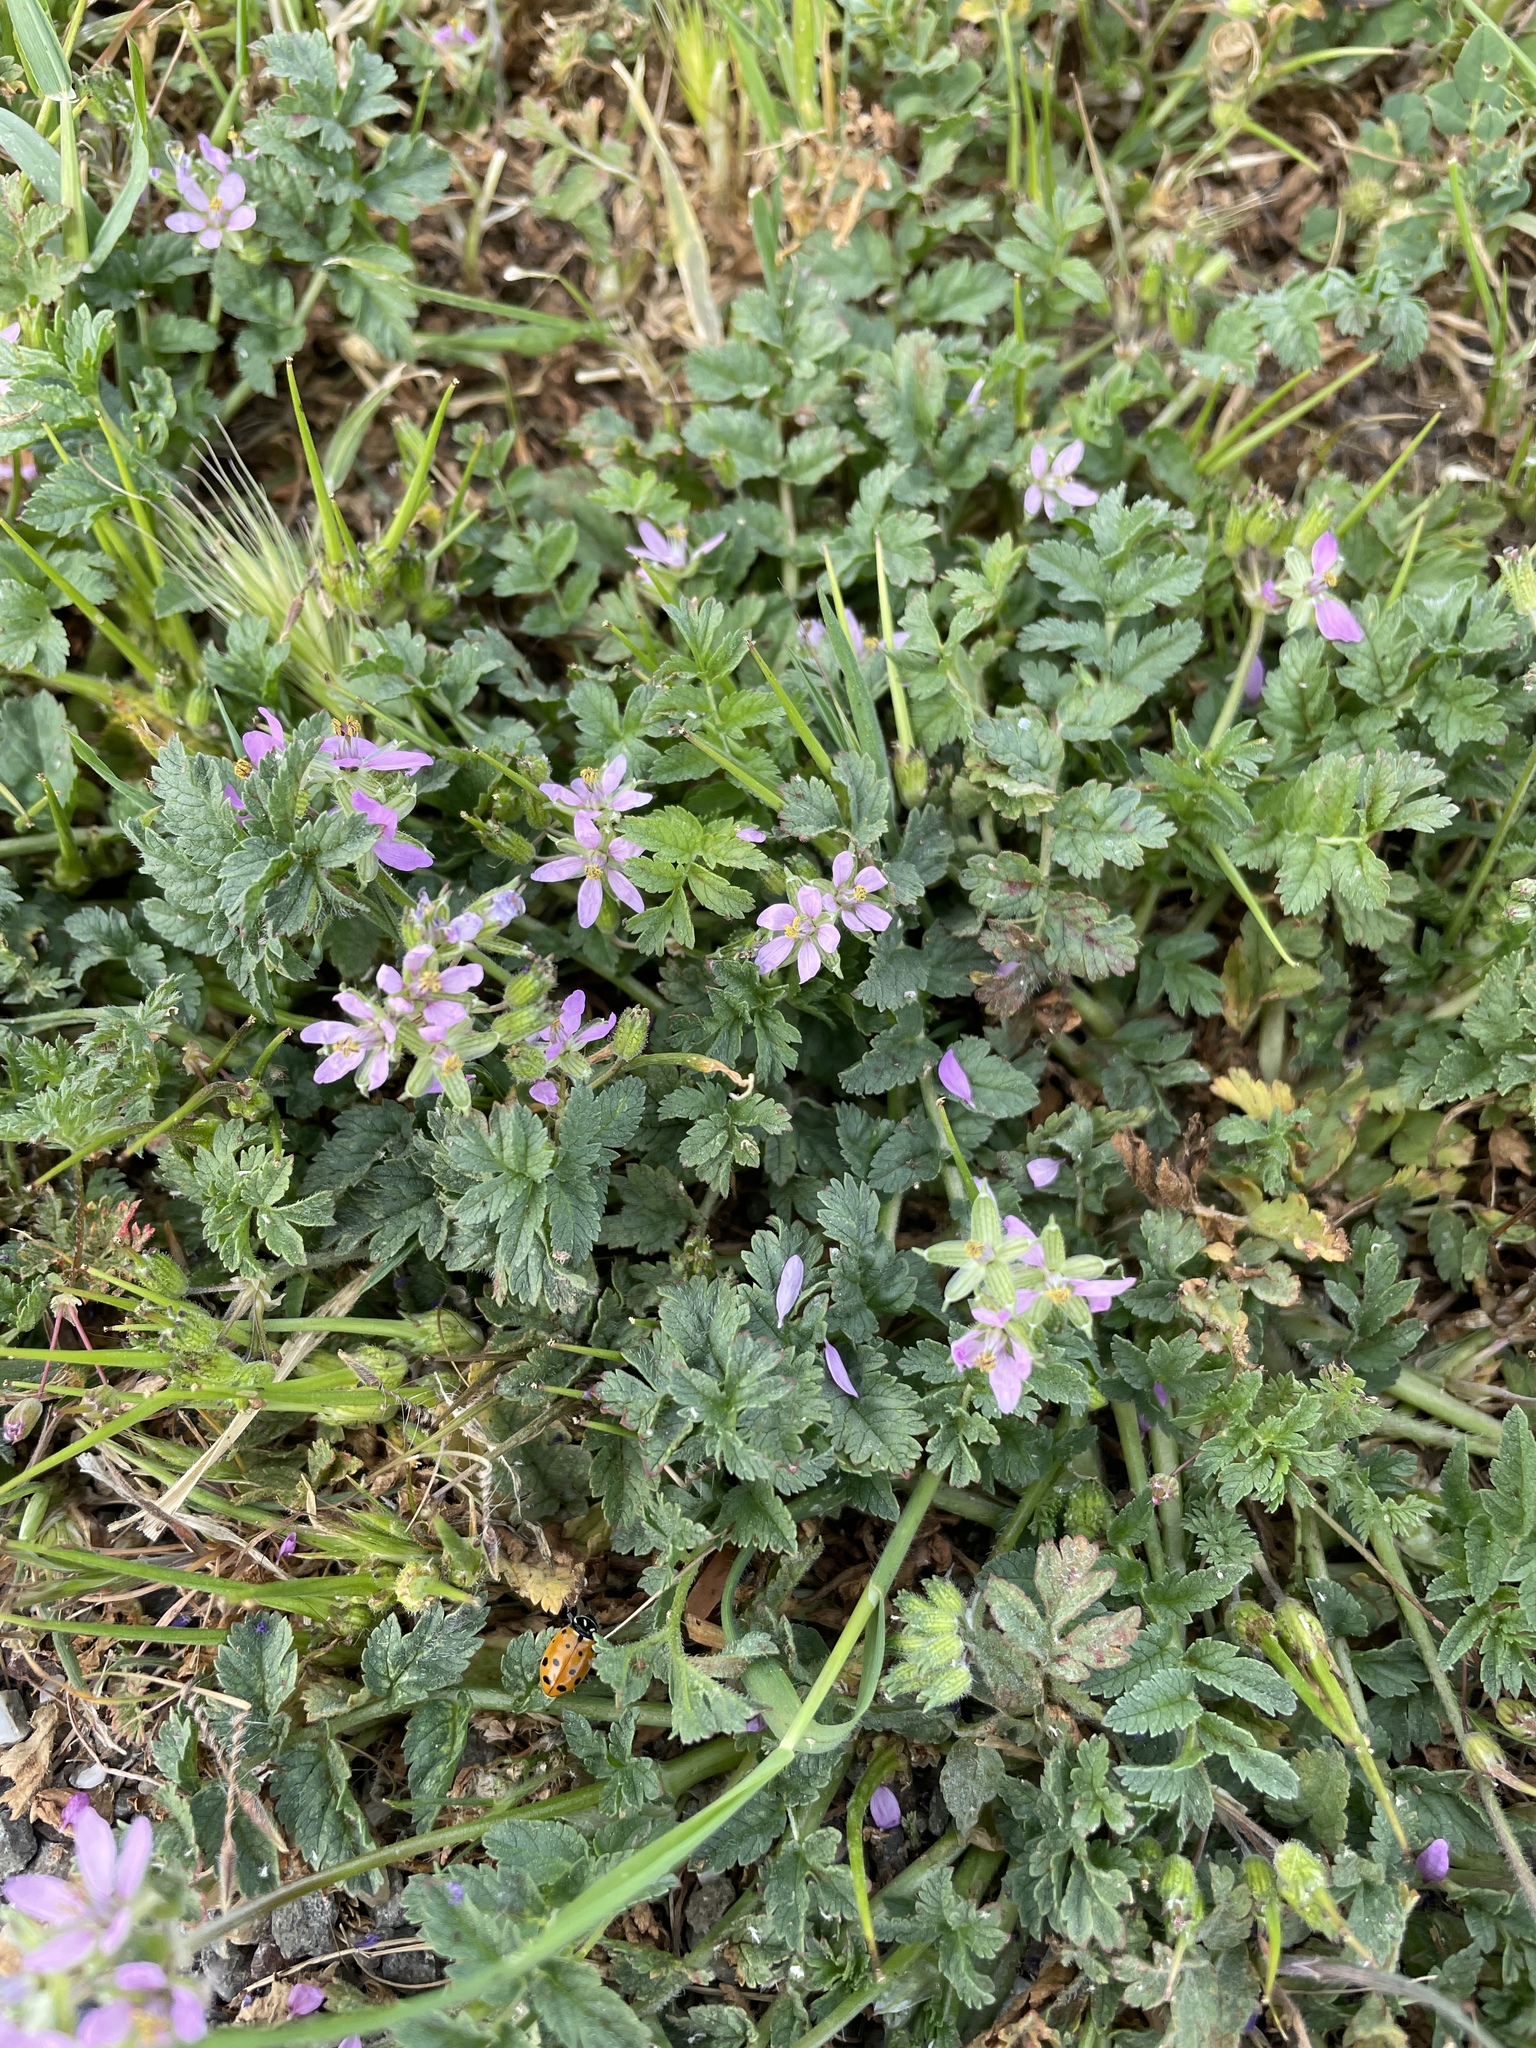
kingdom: Plantae
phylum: Tracheophyta
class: Magnoliopsida
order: Geraniales
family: Geraniaceae
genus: Erodium
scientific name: Erodium moschatum
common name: Musk stork's-bill
